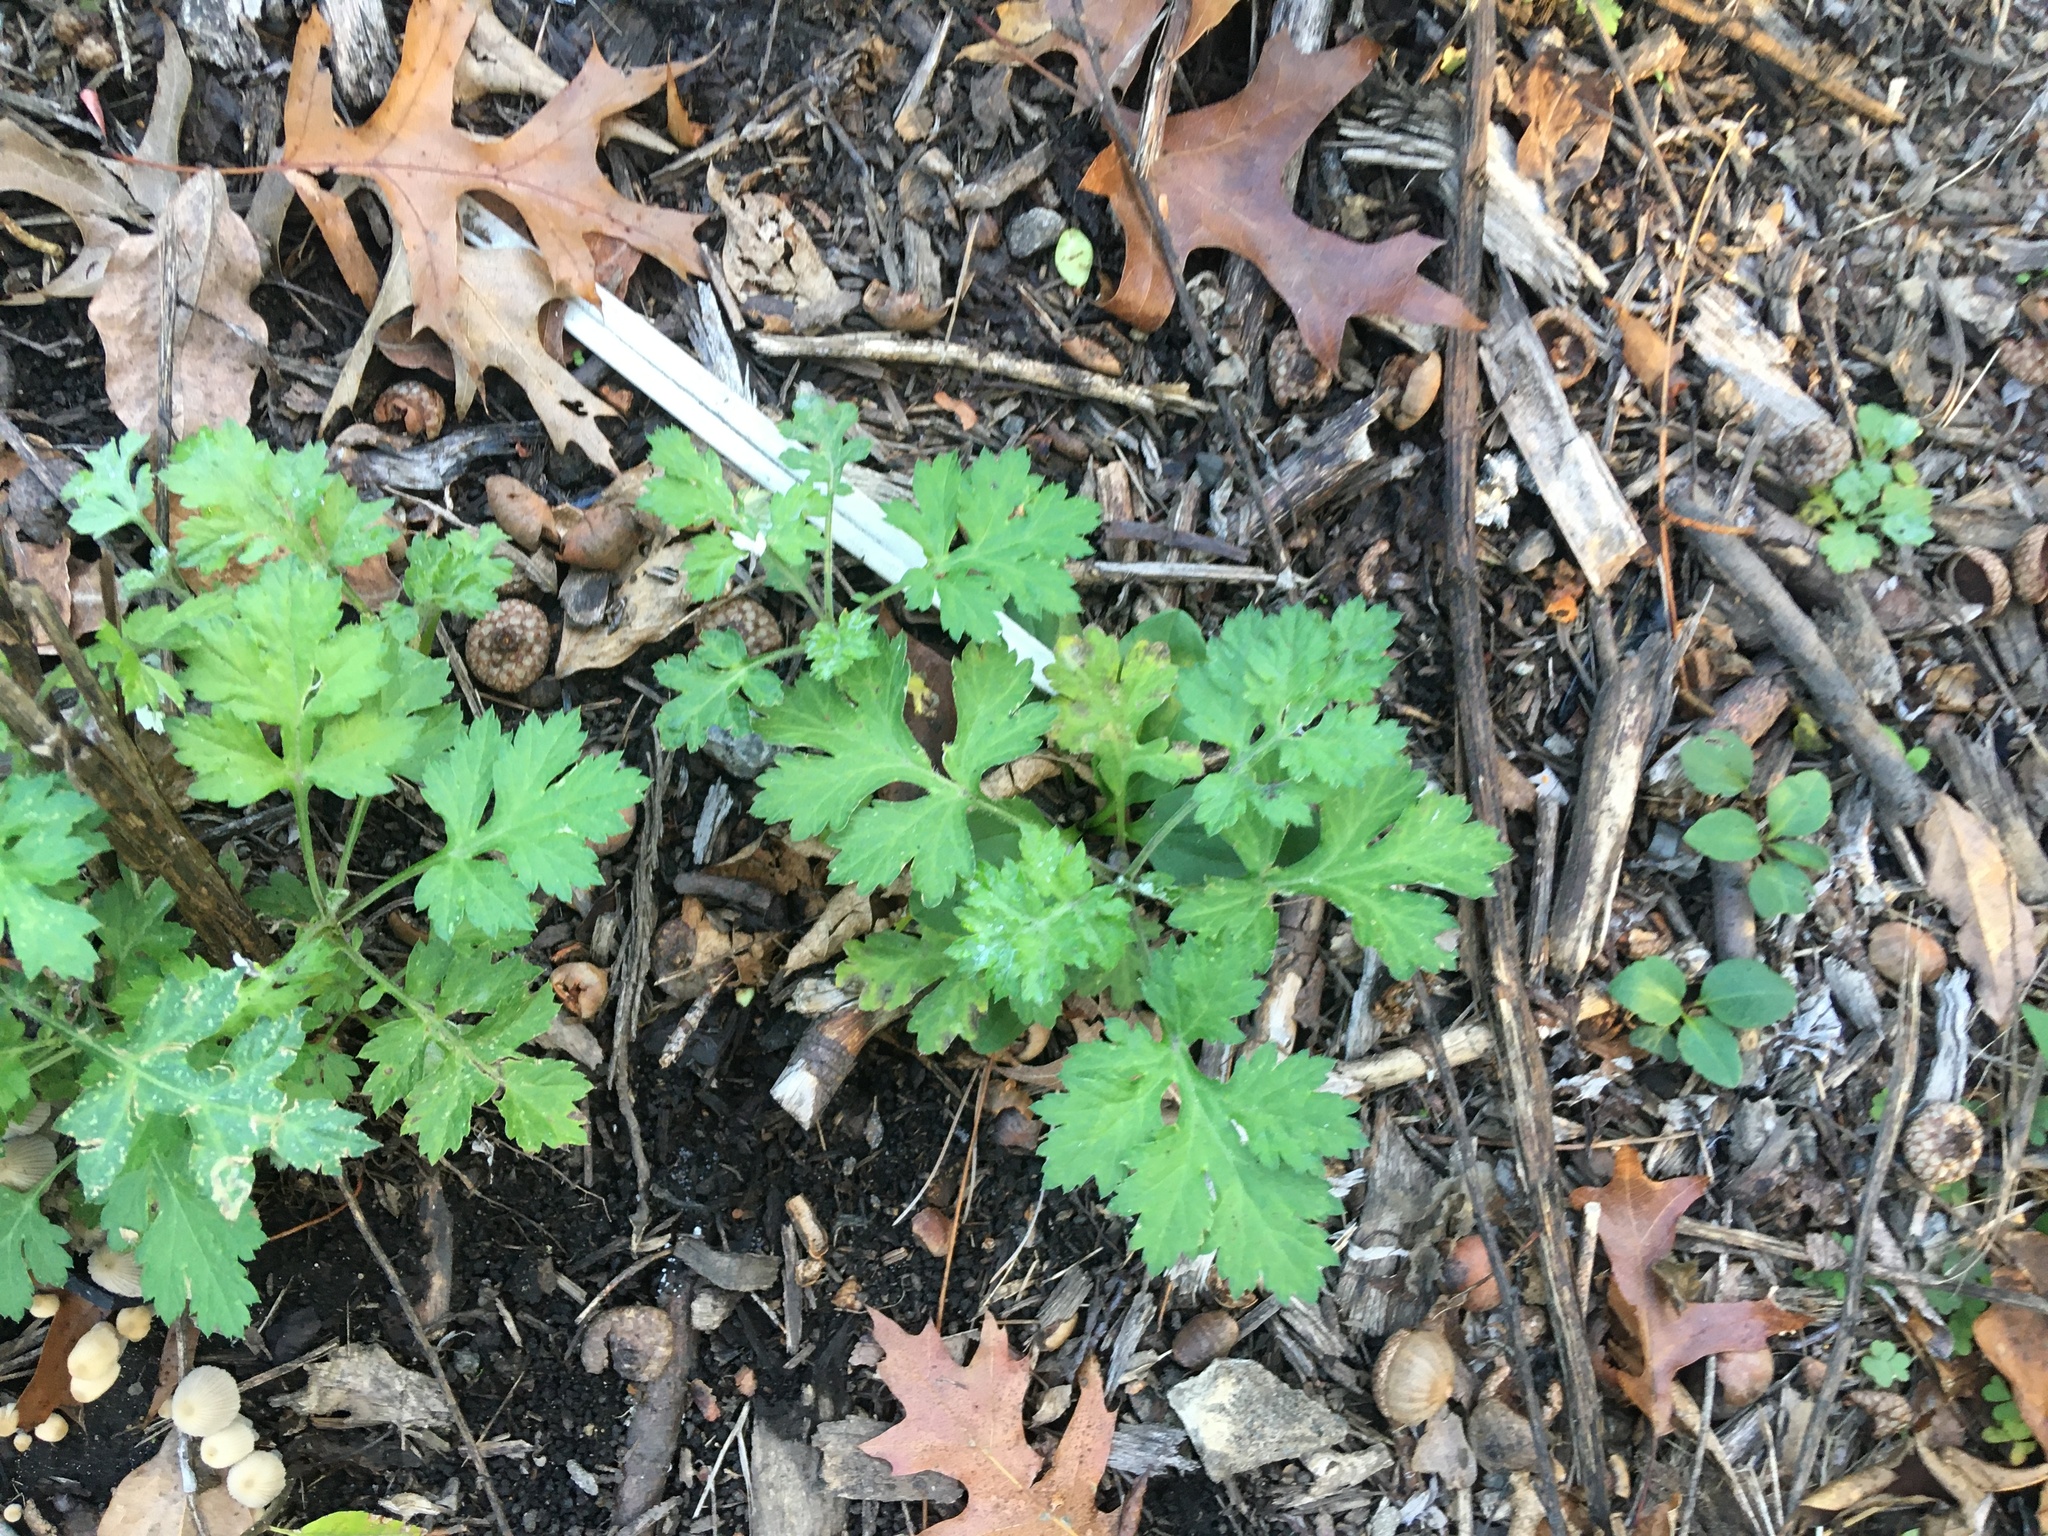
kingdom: Plantae
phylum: Tracheophyta
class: Magnoliopsida
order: Asterales
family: Asteraceae
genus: Artemisia
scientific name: Artemisia vulgaris
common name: Mugwort
